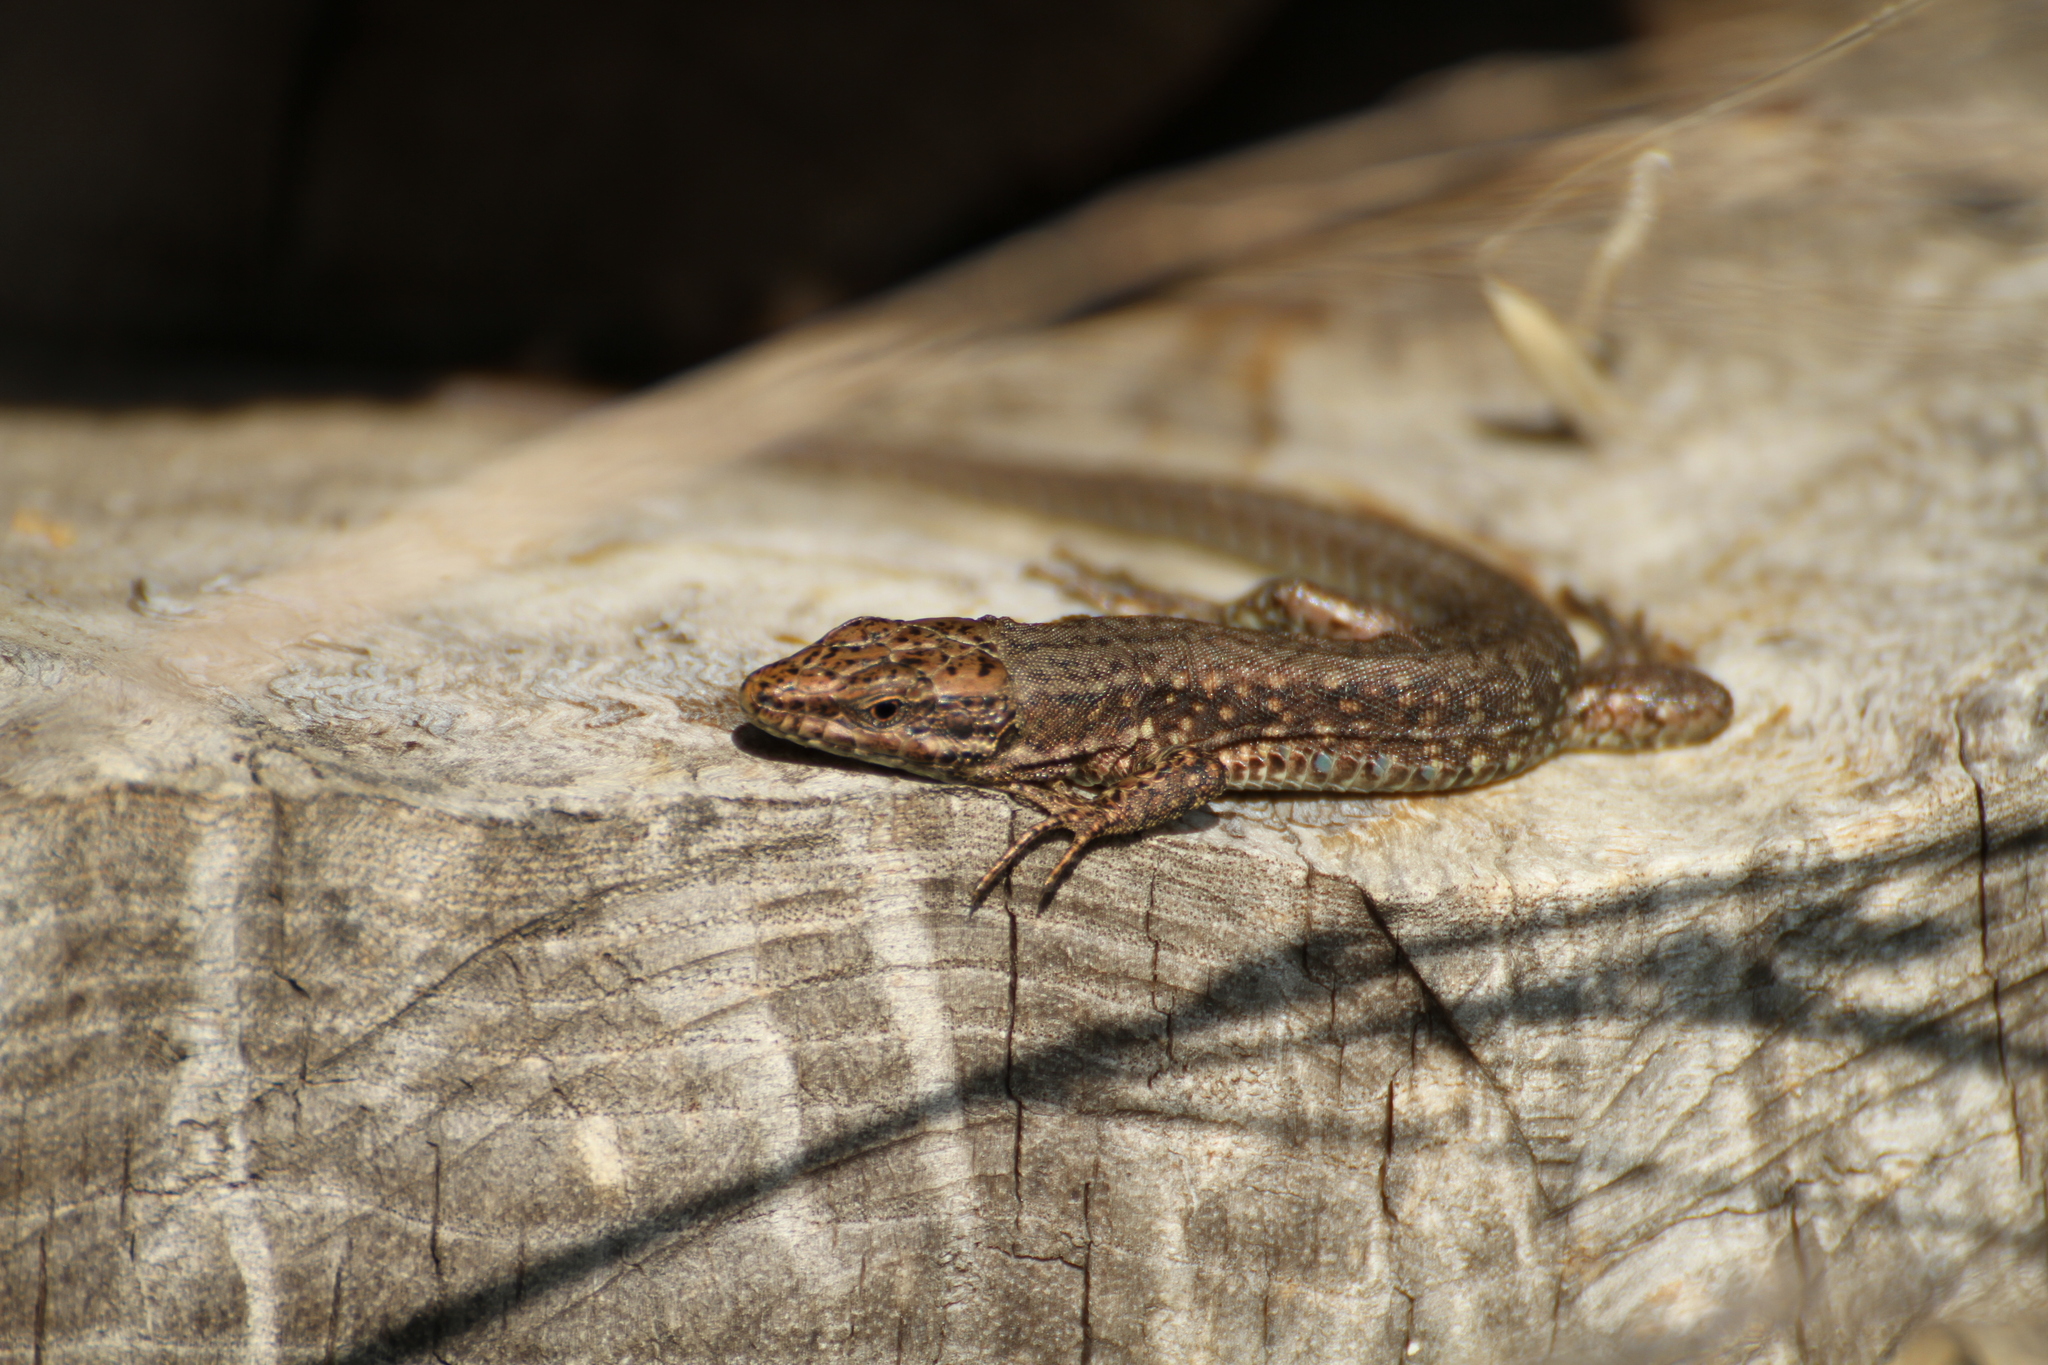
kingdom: Animalia
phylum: Chordata
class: Squamata
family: Lacertidae
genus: Podarcis
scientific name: Podarcis muralis
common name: Common wall lizard
